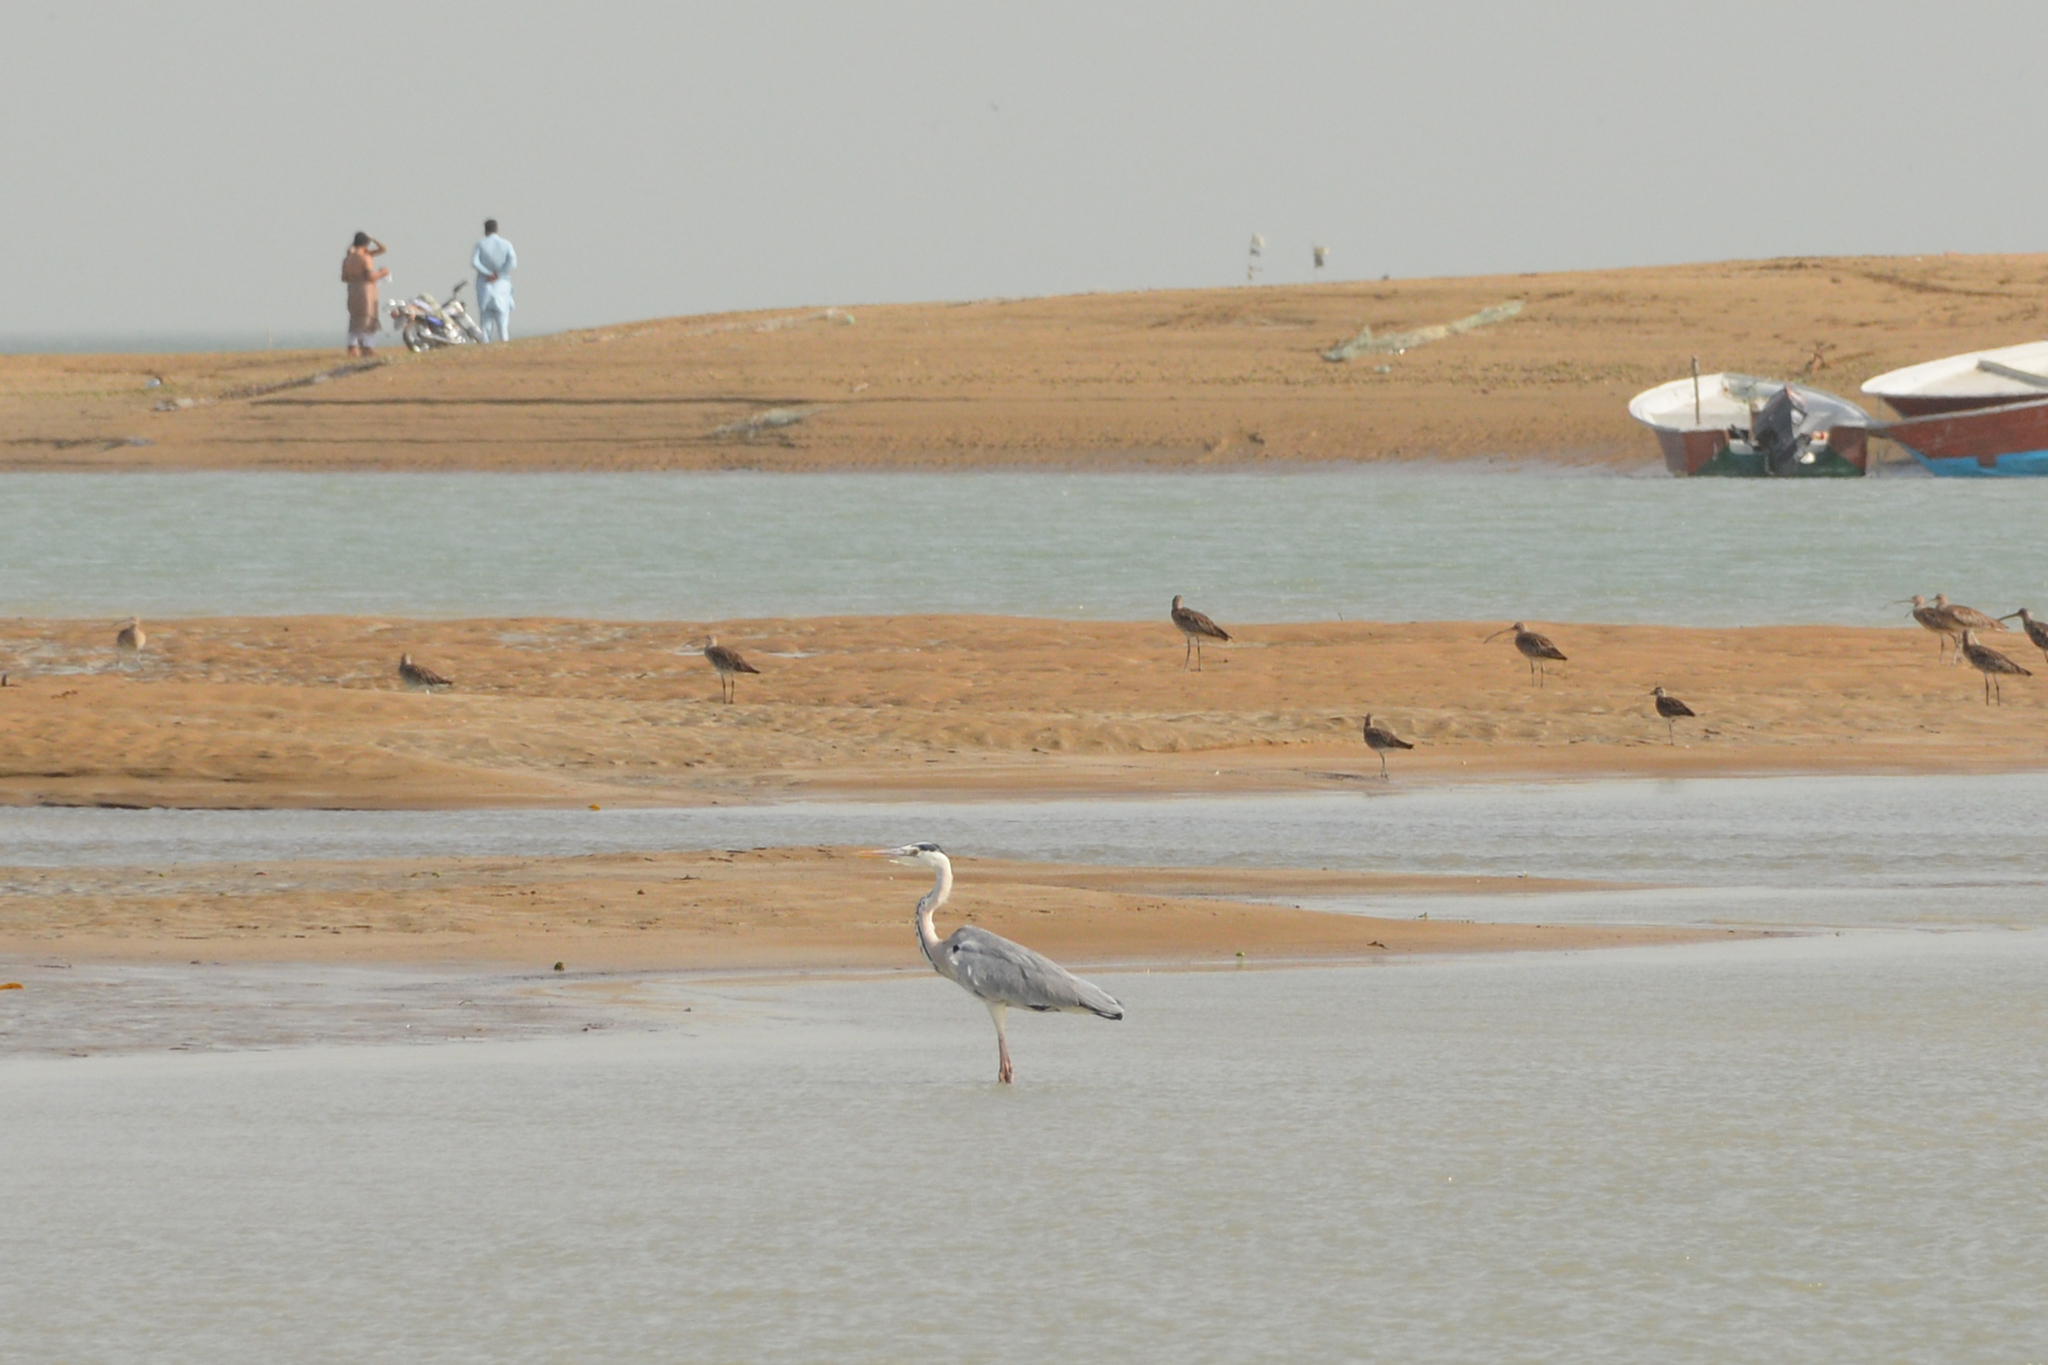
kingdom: Animalia
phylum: Chordata
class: Aves
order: Pelecaniformes
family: Ardeidae
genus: Ardea
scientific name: Ardea cinerea
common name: Grey heron
